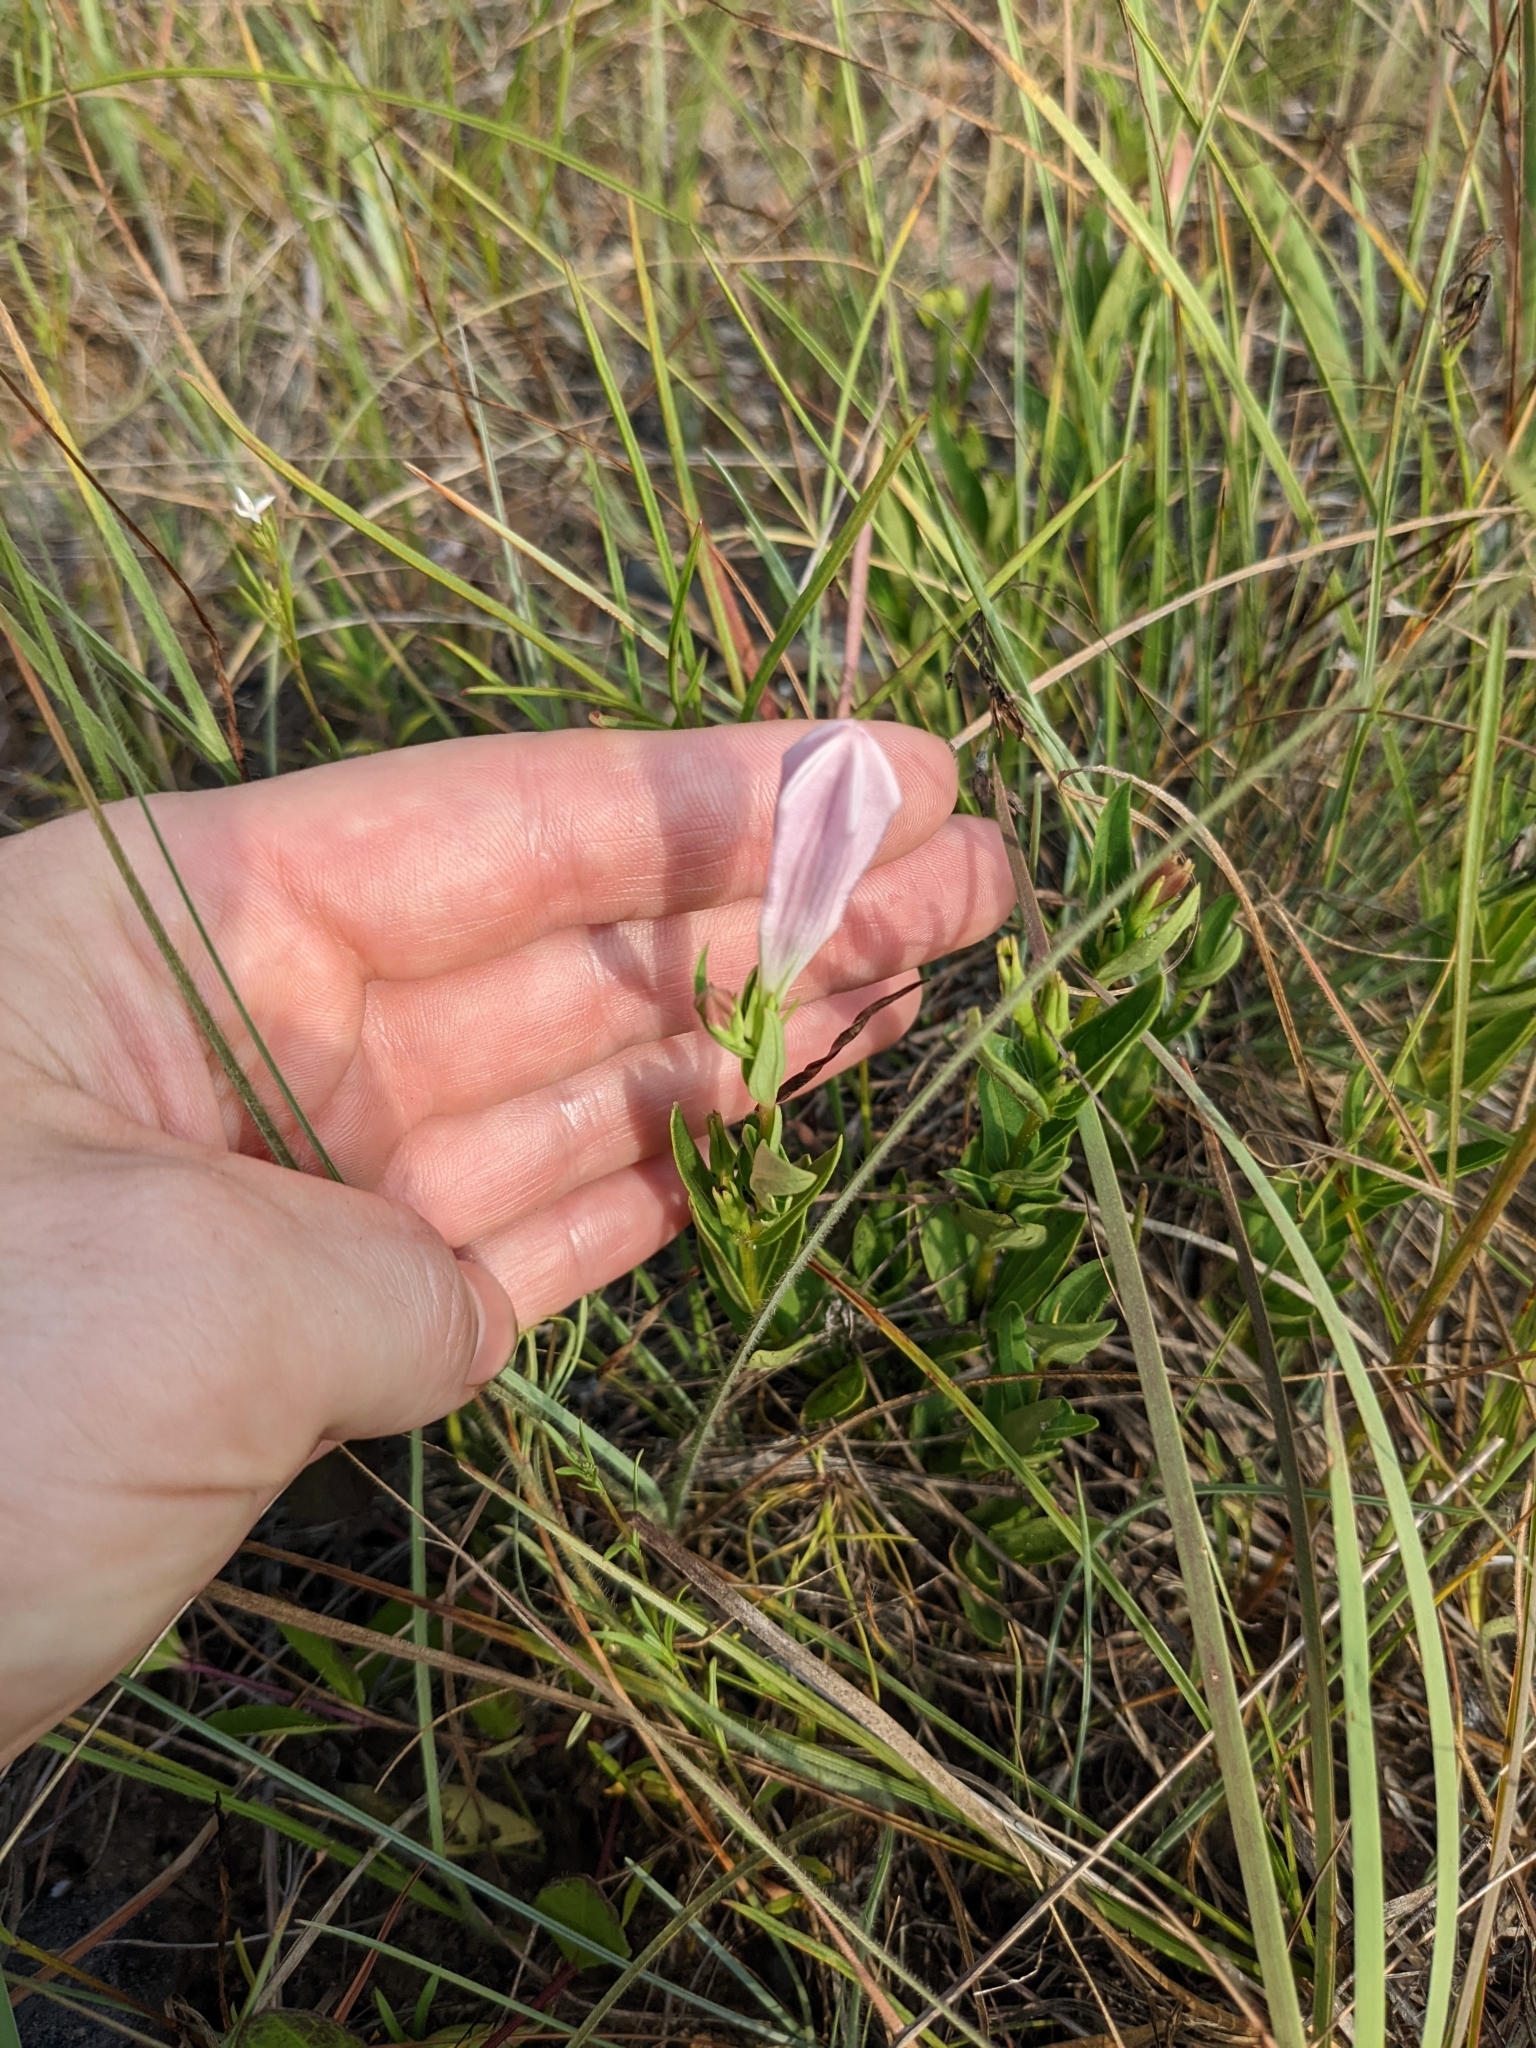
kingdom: Plantae
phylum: Tracheophyta
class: Magnoliopsida
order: Gentianales
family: Loganiaceae
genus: Spigelia
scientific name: Spigelia alabamensis
